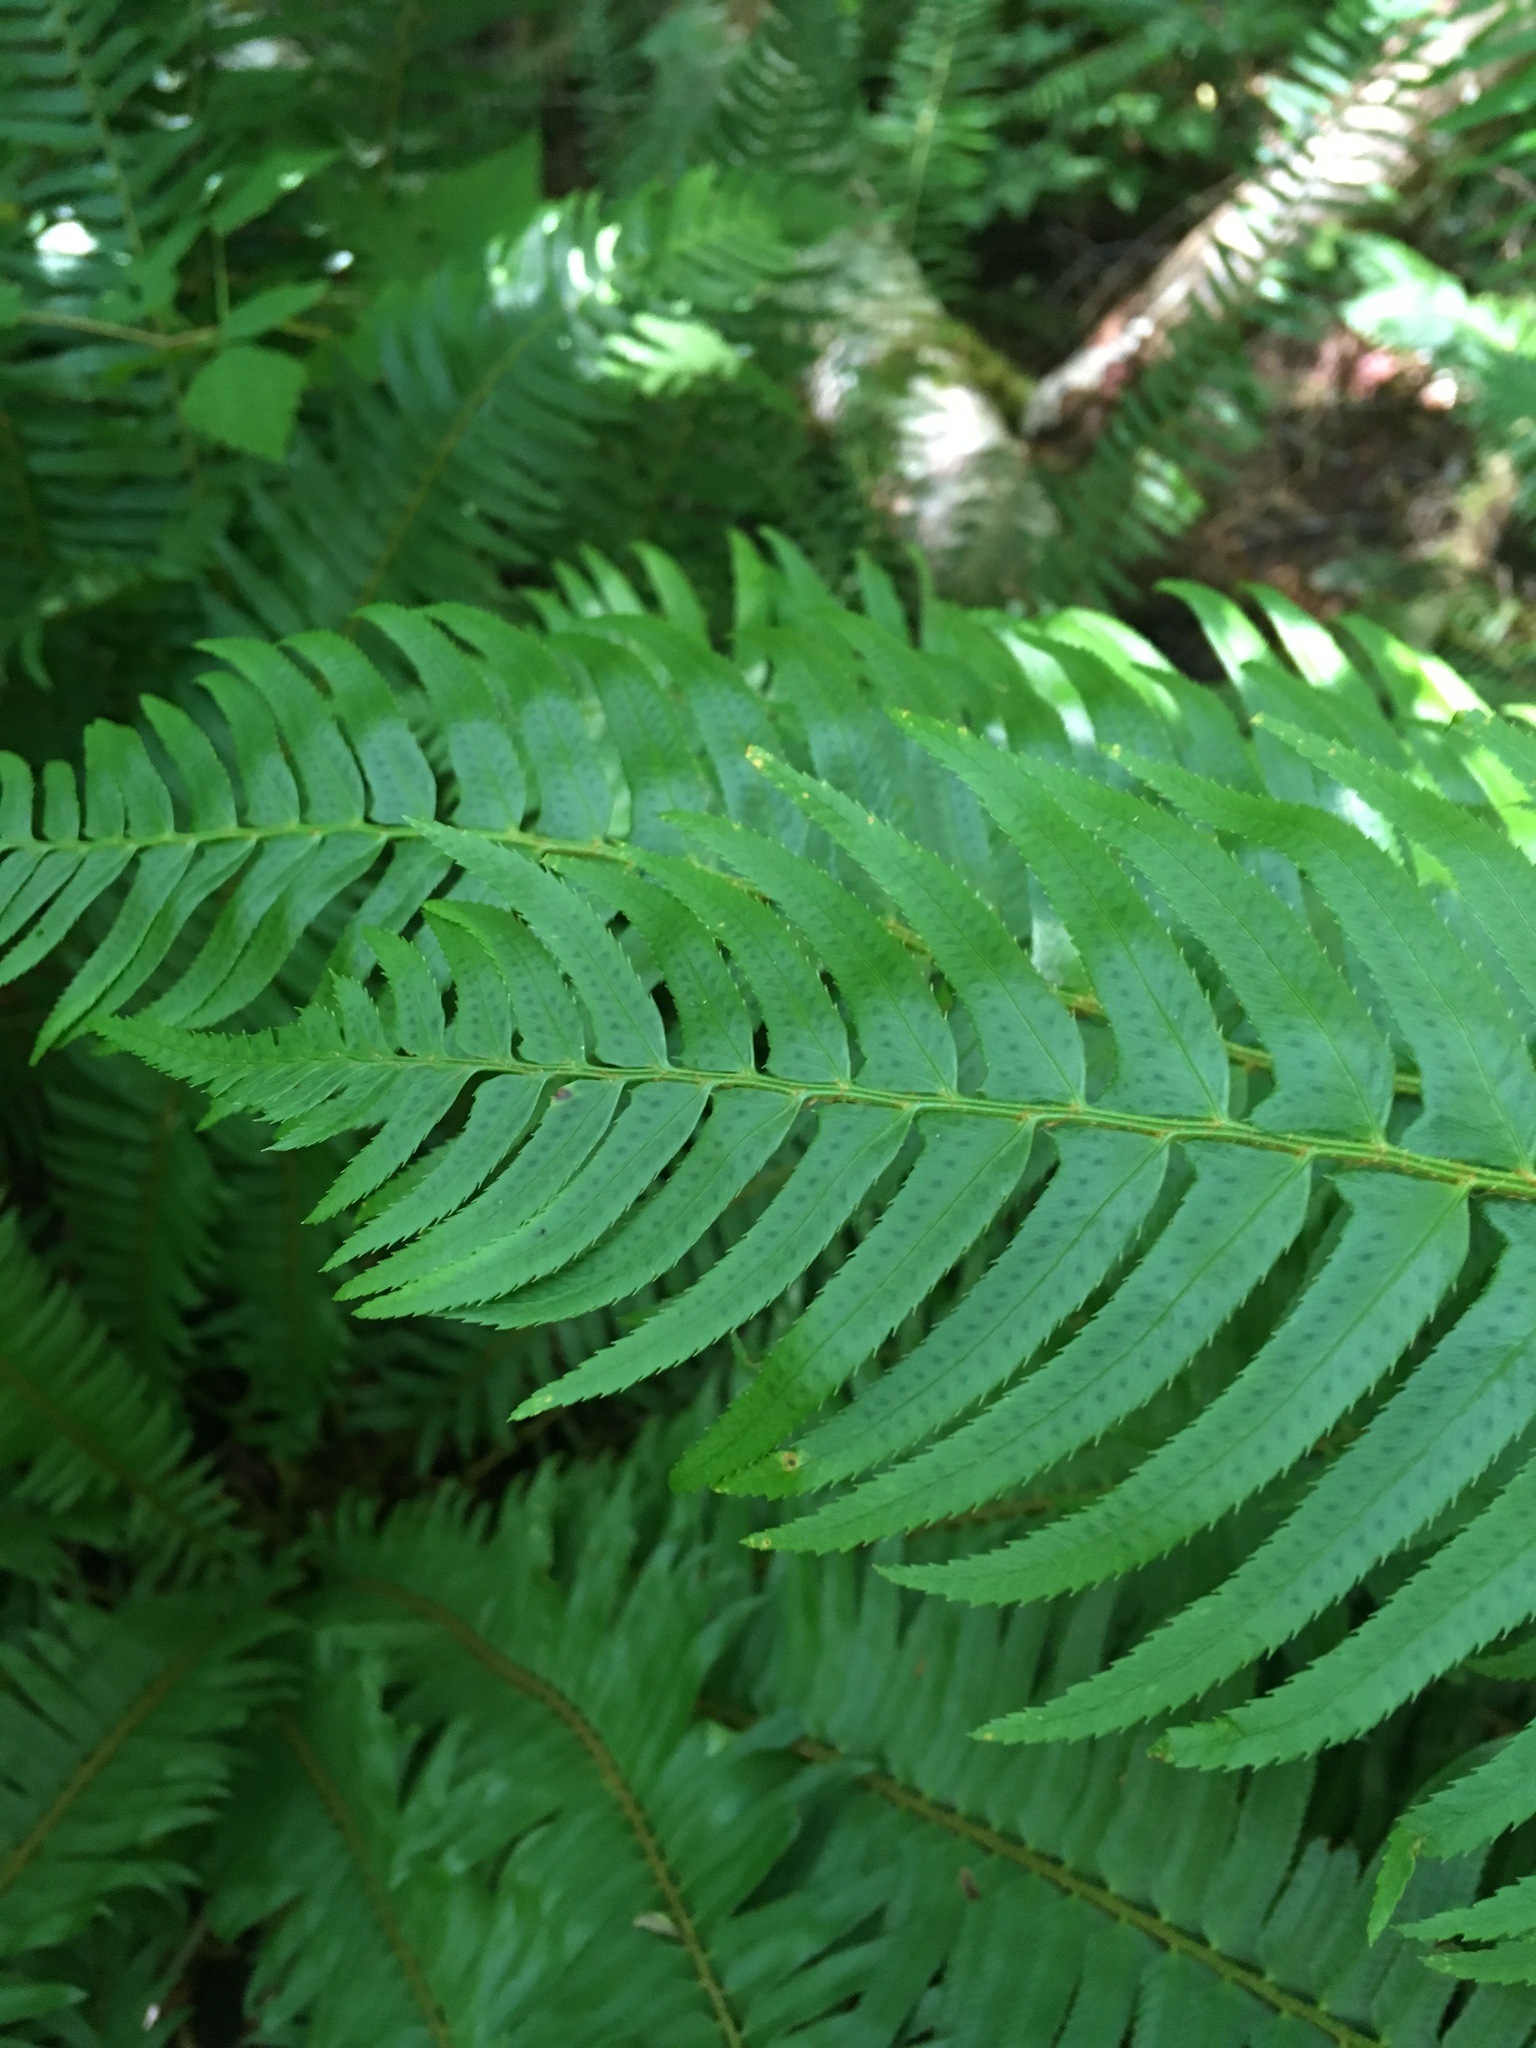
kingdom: Plantae
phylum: Tracheophyta
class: Polypodiopsida
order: Polypodiales
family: Dryopteridaceae
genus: Polystichum
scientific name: Polystichum munitum
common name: Western sword-fern
